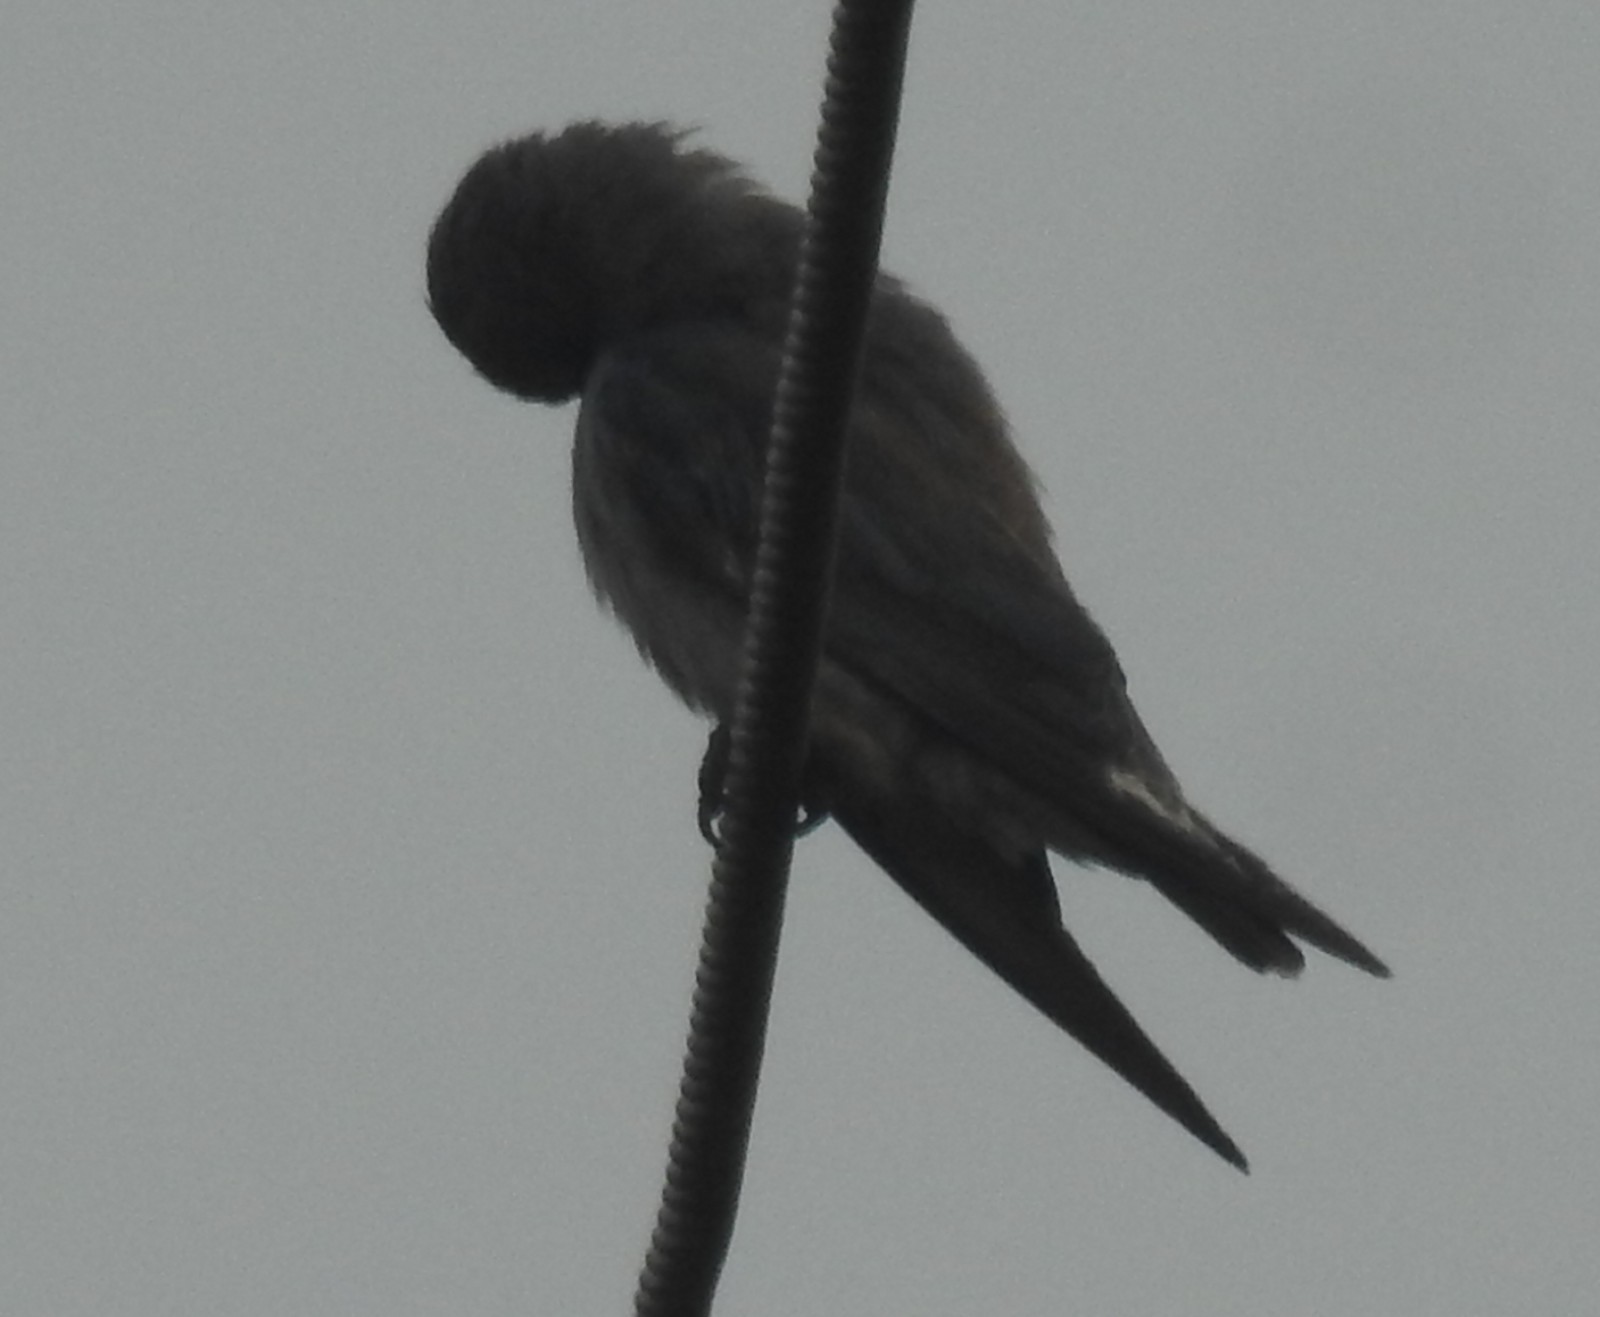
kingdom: Animalia
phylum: Chordata
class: Aves
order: Passeriformes
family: Artamidae
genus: Artamus
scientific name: Artamus fuscus
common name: Ashy woodswallow
